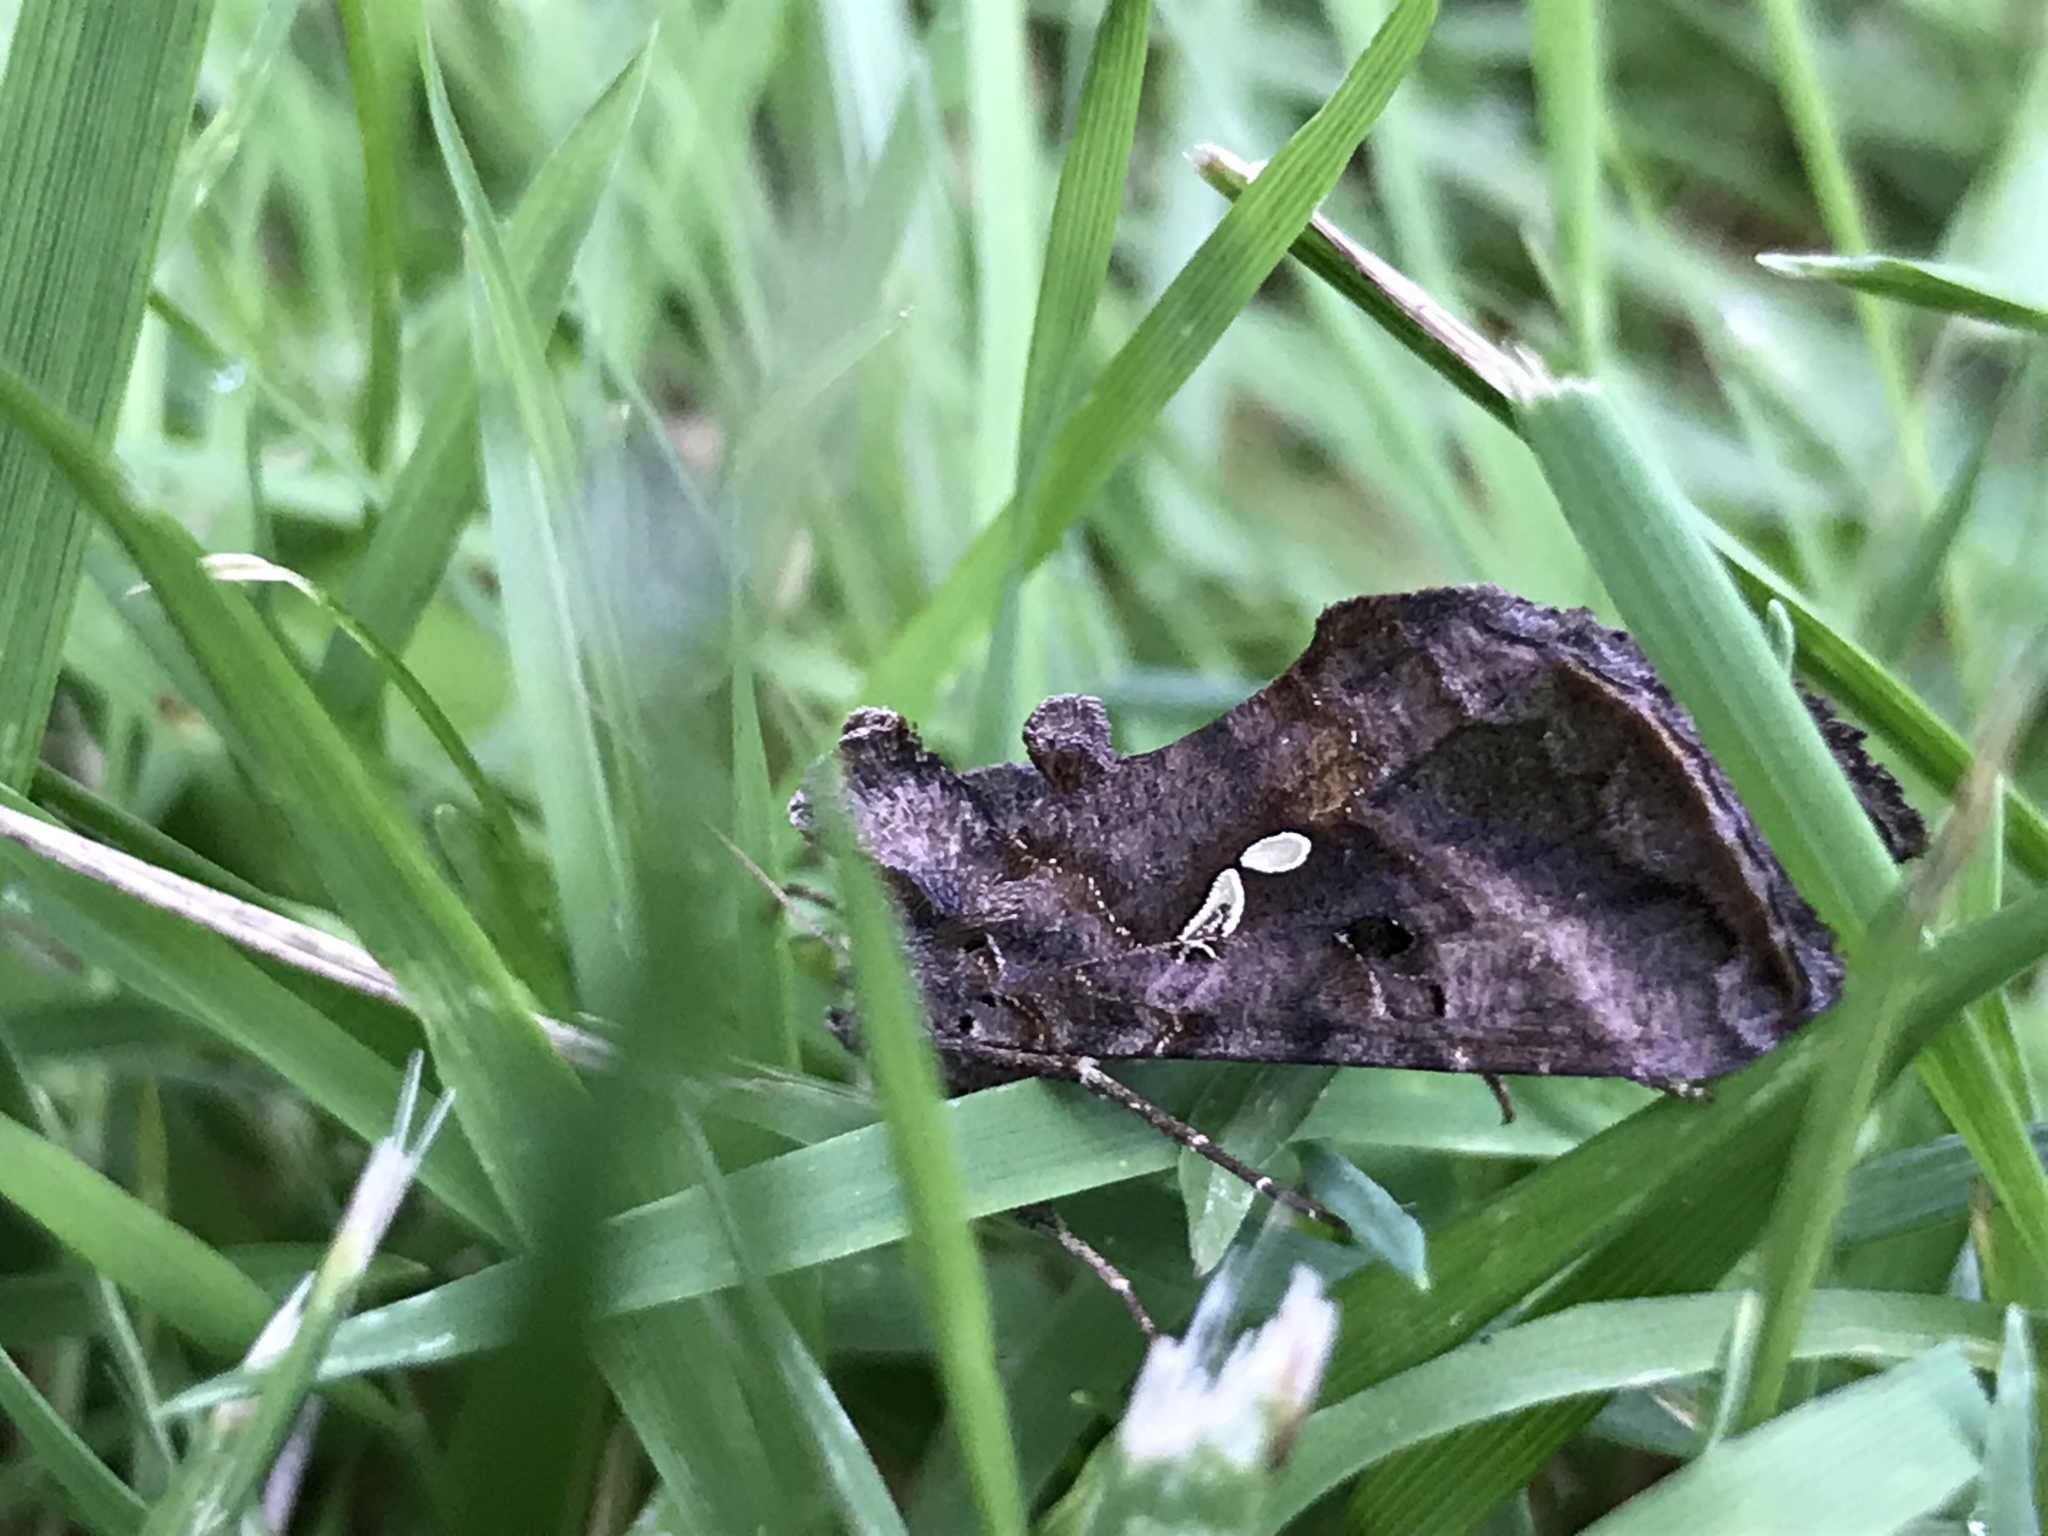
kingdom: Animalia
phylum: Arthropoda
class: Insecta
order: Lepidoptera
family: Noctuidae
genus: Autographa
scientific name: Autographa precationis
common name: Common looper moth
